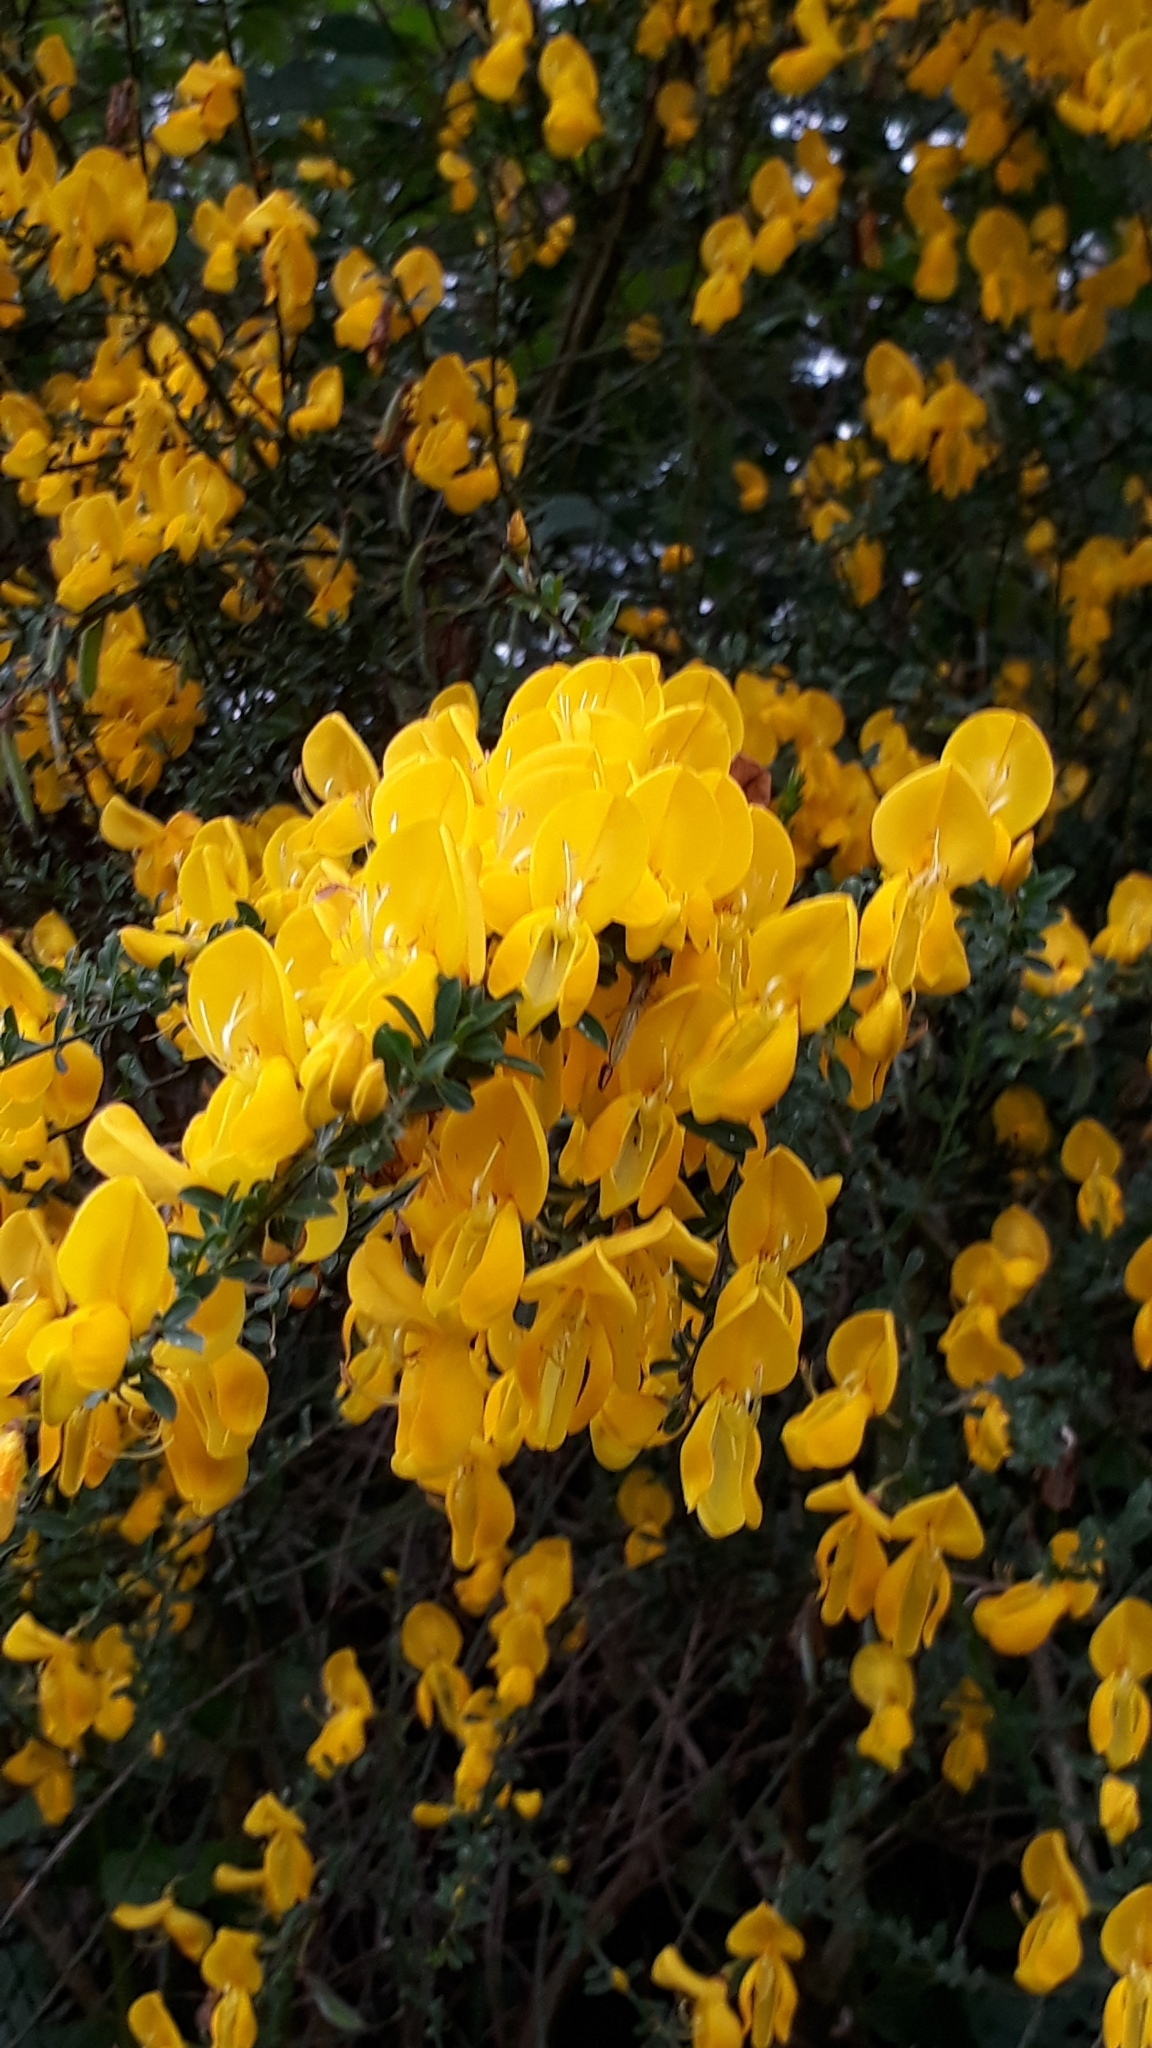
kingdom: Plantae
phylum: Tracheophyta
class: Magnoliopsida
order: Fabales
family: Fabaceae
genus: Cytisus
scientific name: Cytisus scoparius
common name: Scotch broom
